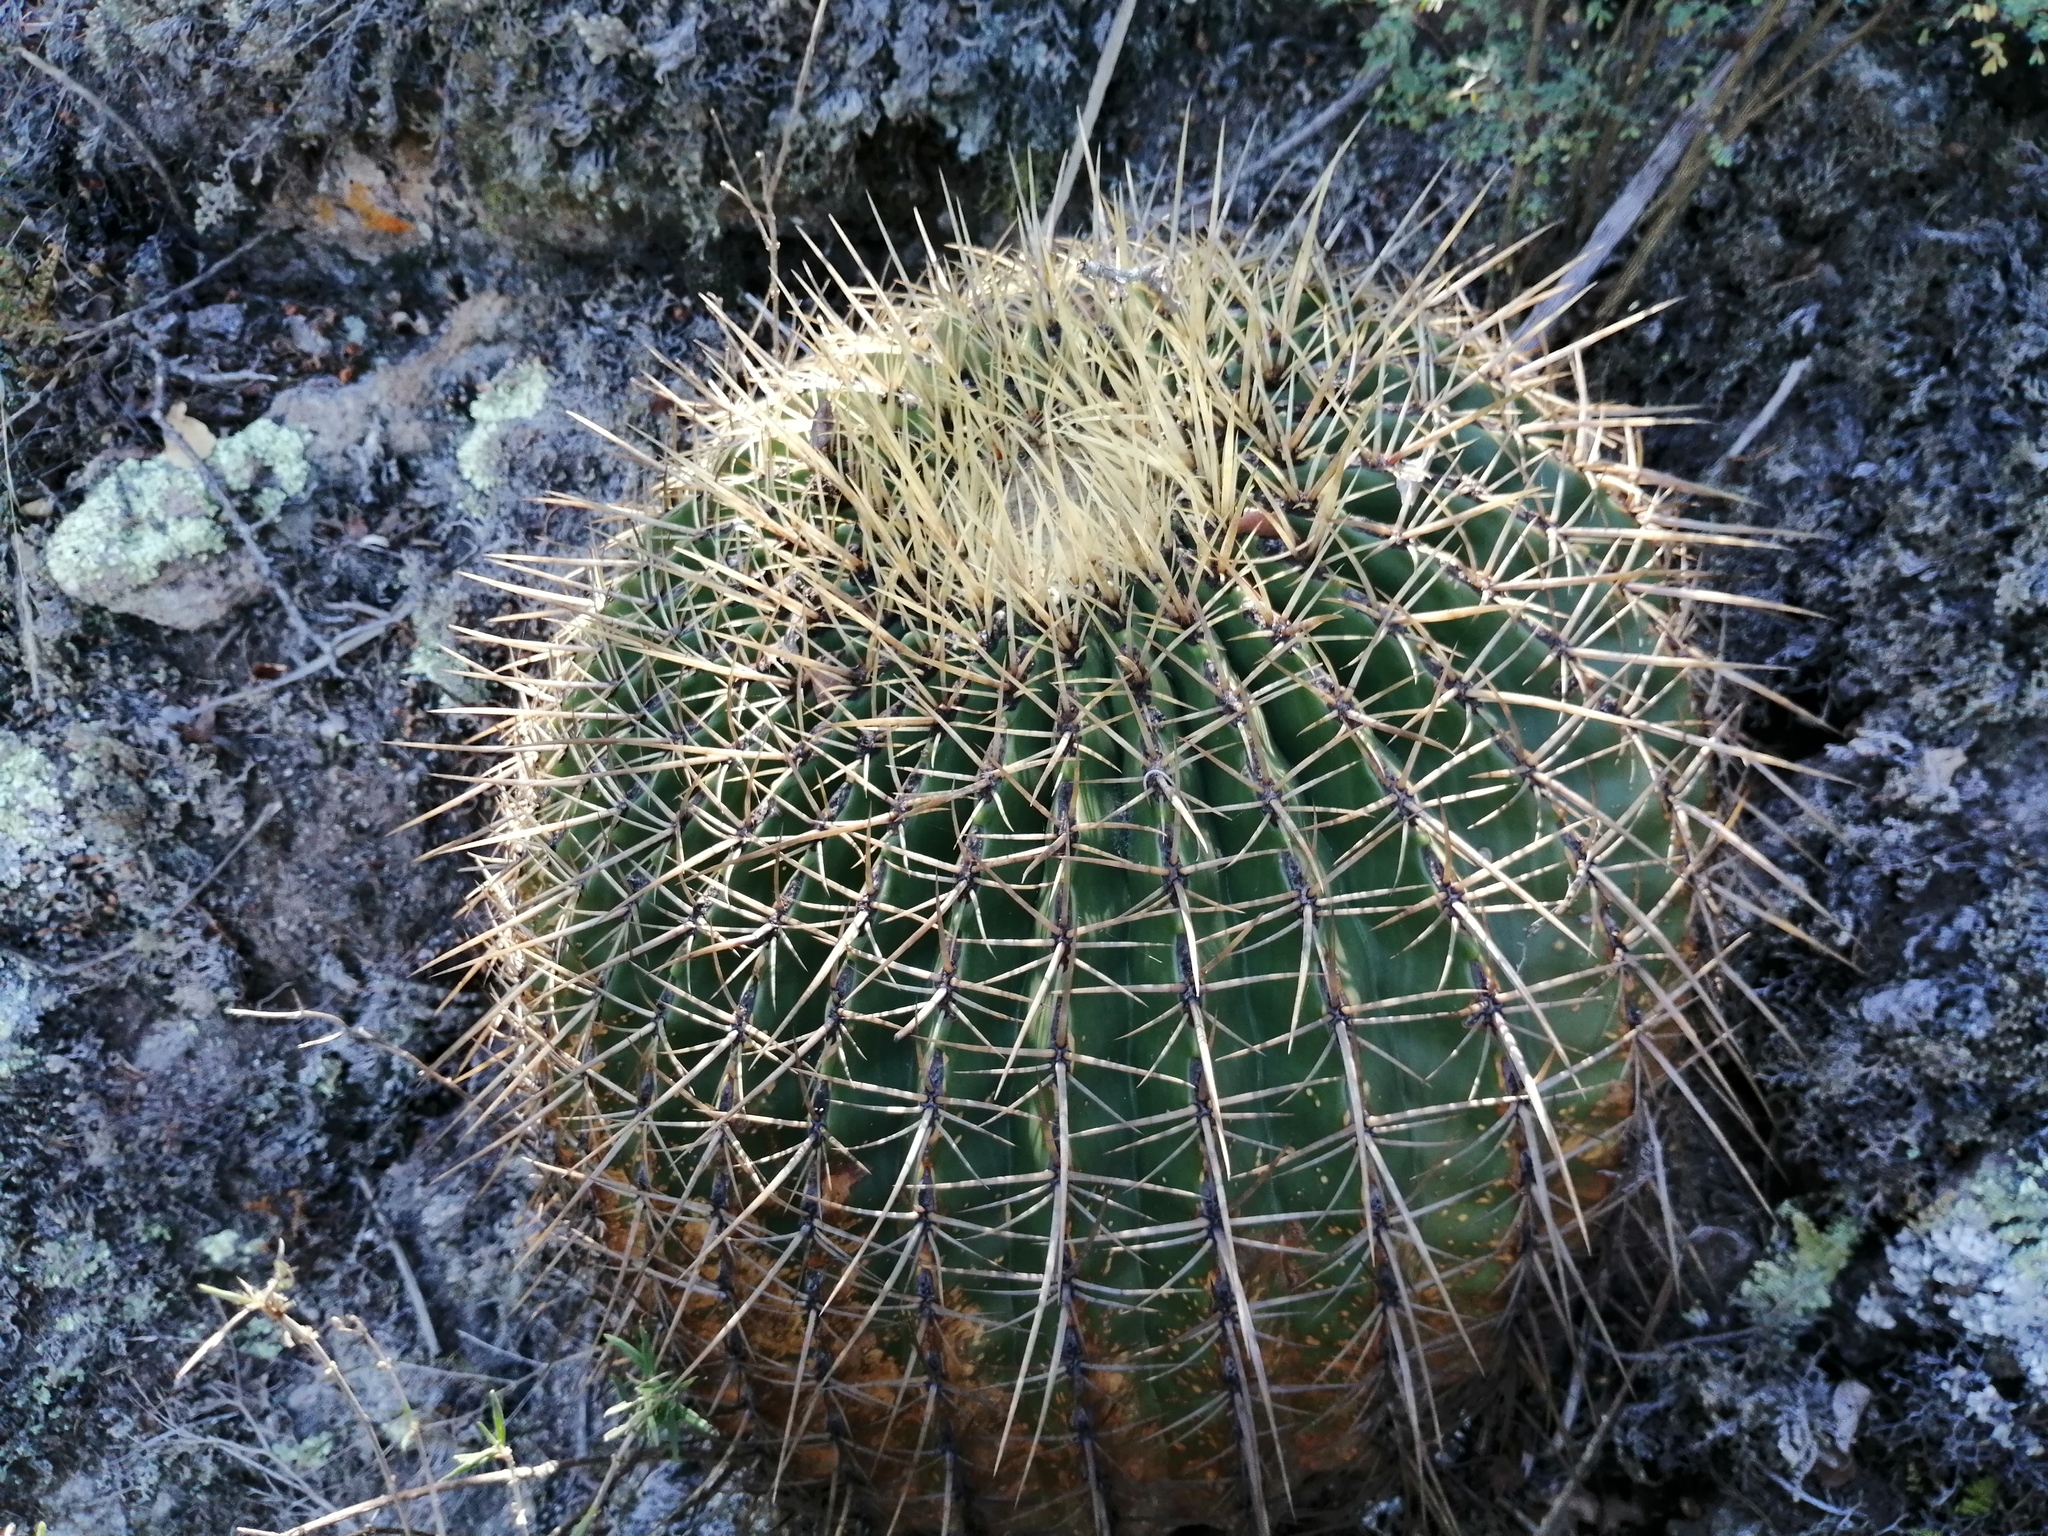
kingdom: Plantae
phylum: Tracheophyta
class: Magnoliopsida
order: Caryophyllales
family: Cactaceae
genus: Bisnaga
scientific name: Bisnaga histrix
